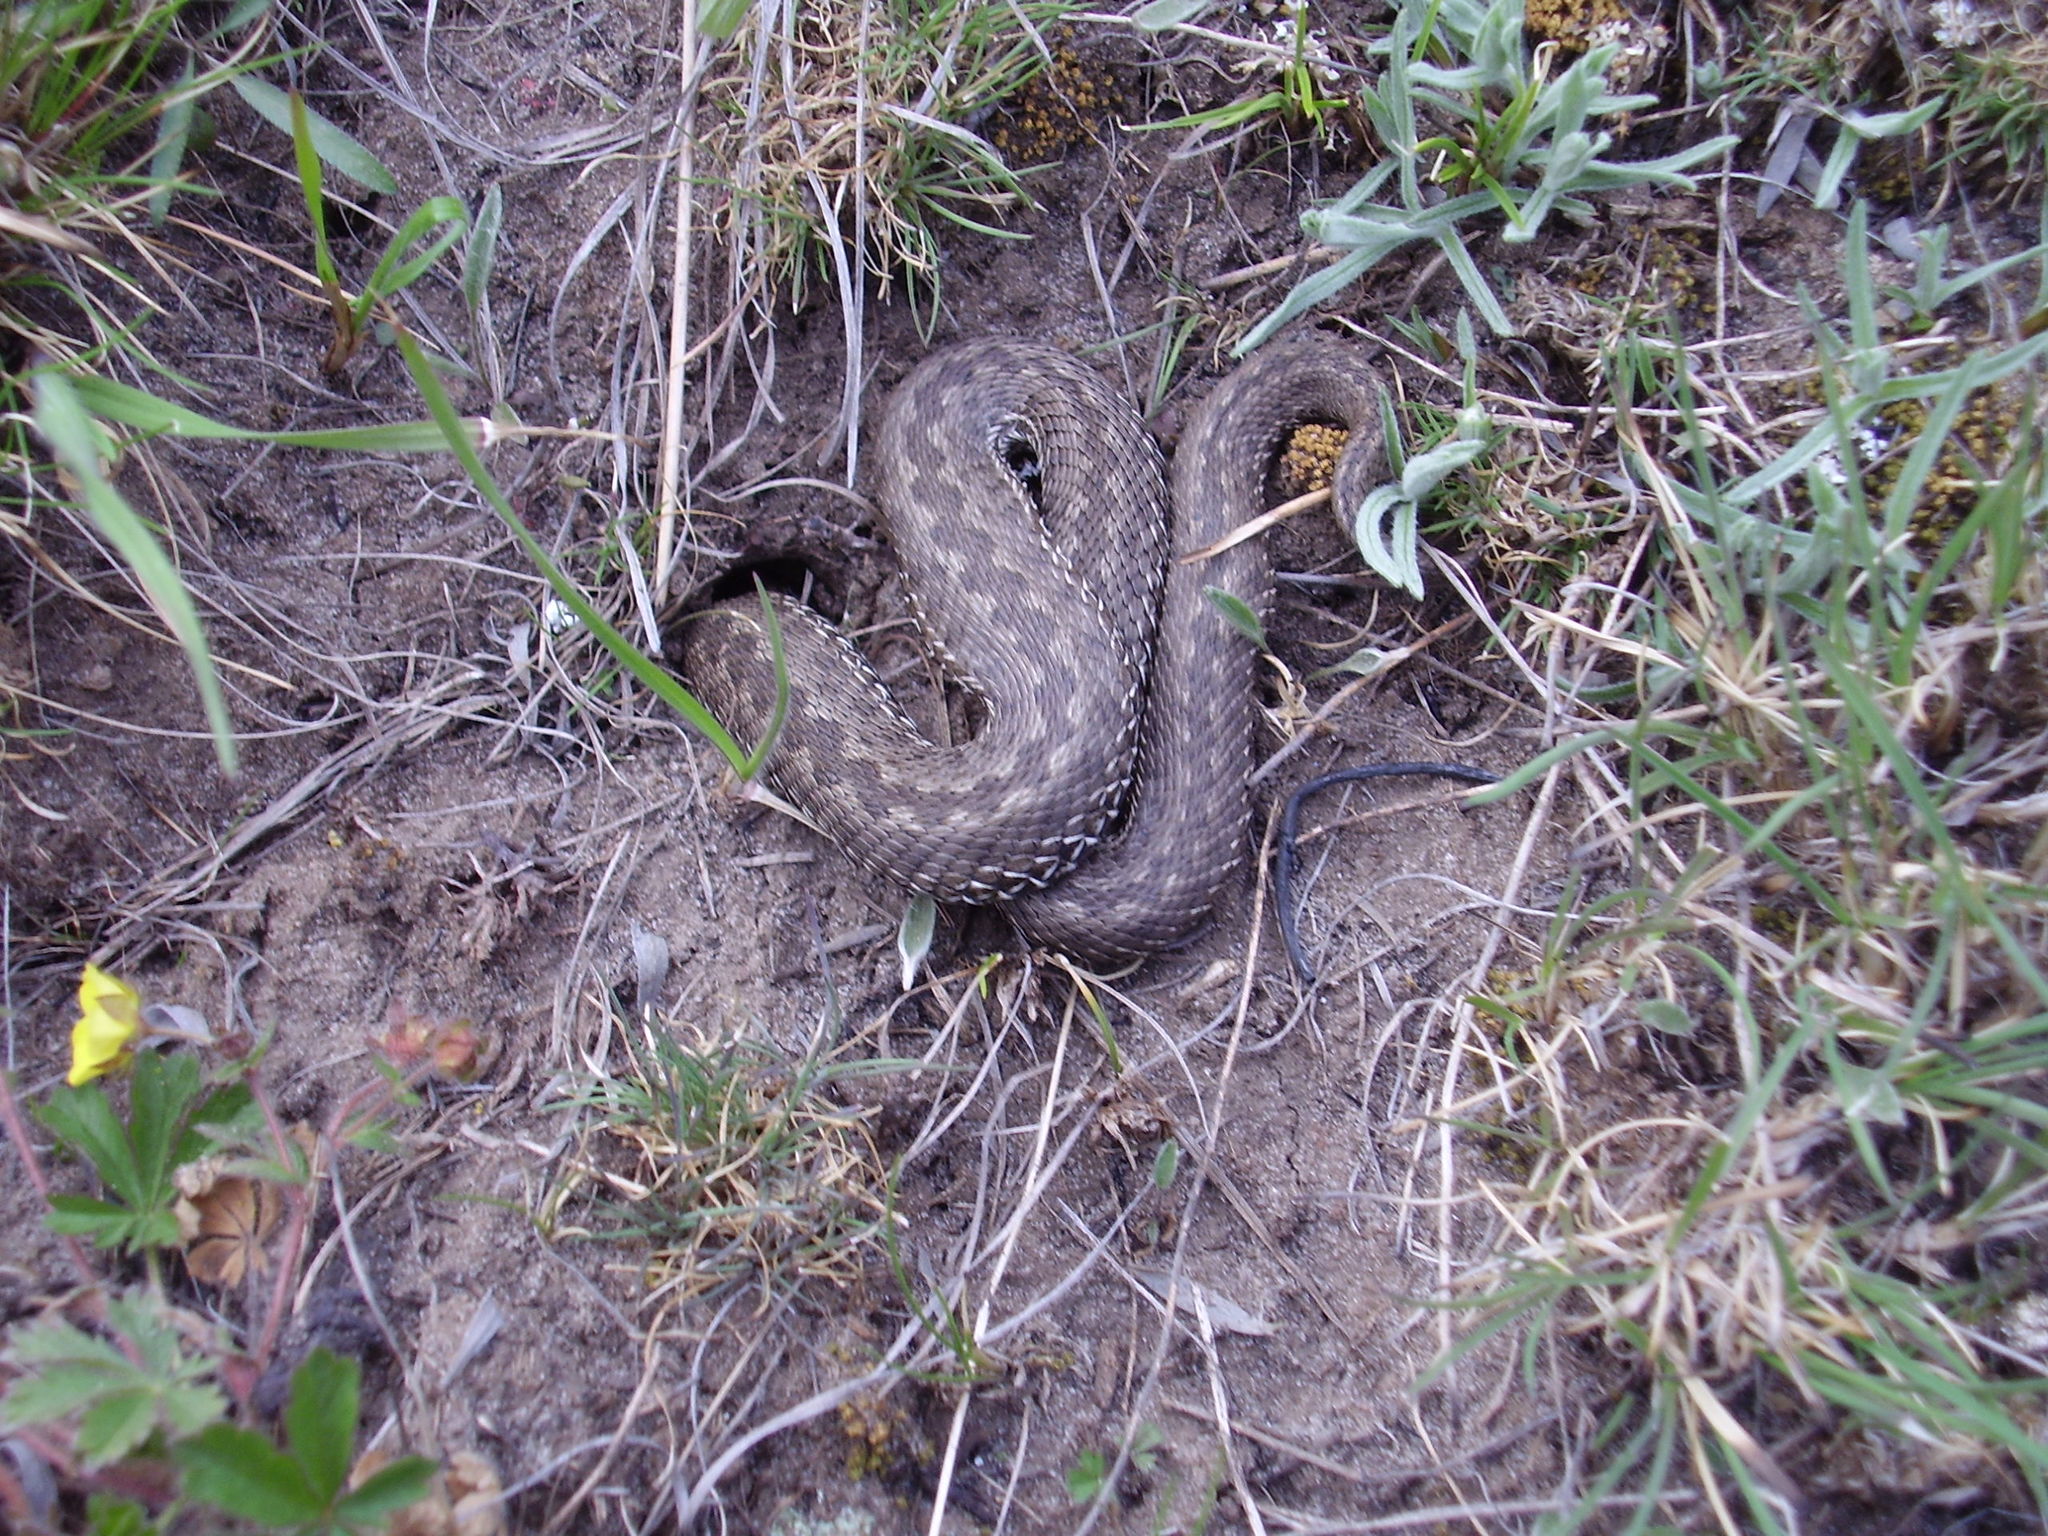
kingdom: Animalia
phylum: Chordata
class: Squamata
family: Viperidae
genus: Vipera
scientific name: Vipera renardi
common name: Eastern steppe viper
